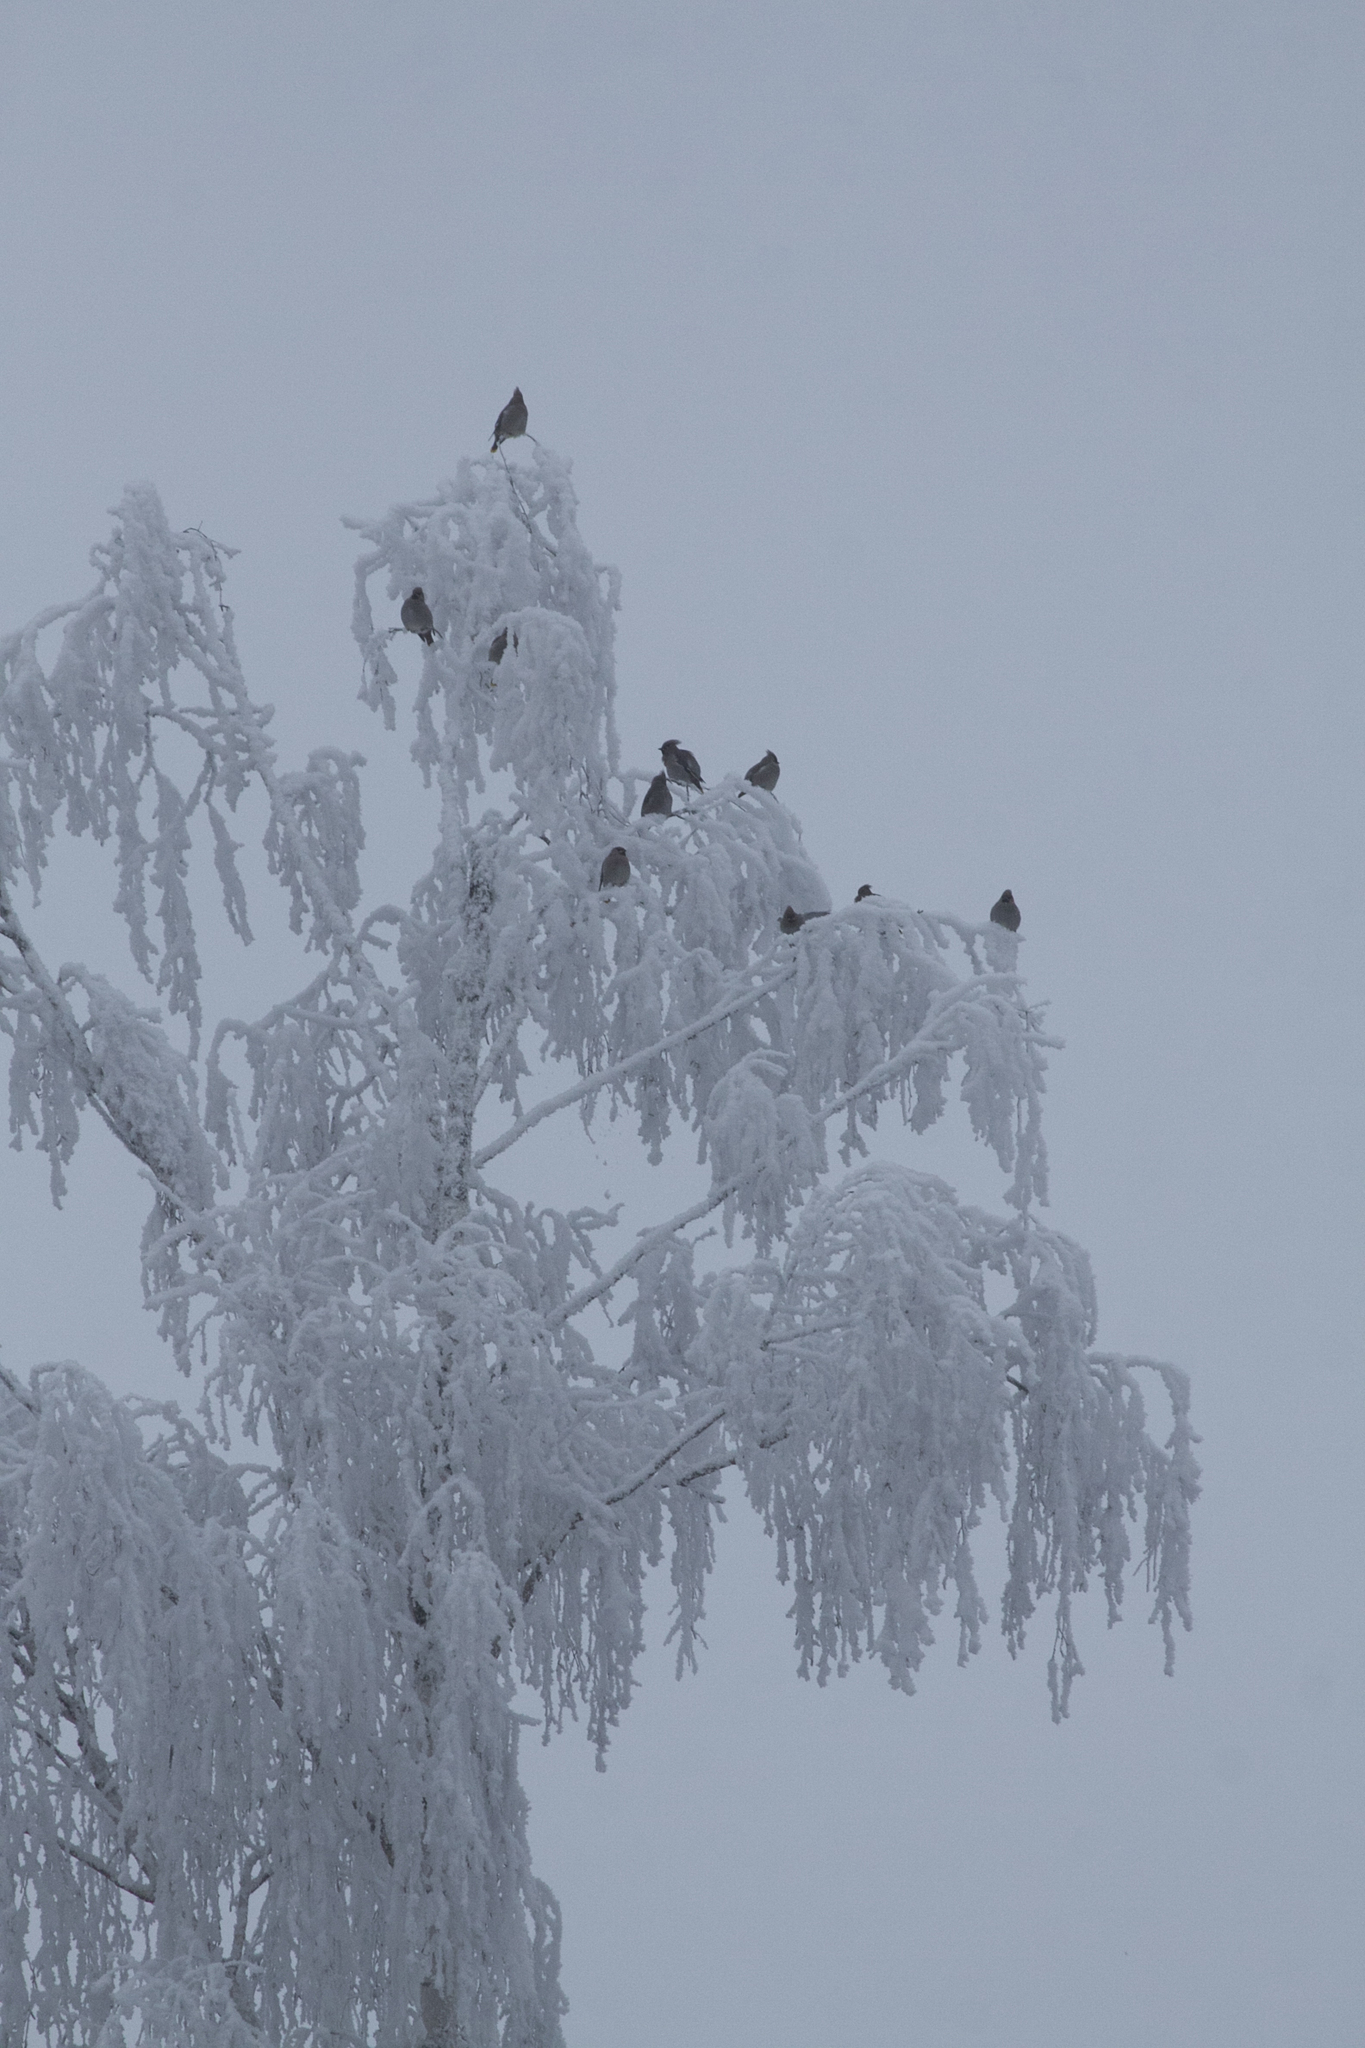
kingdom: Animalia
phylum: Chordata
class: Aves
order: Passeriformes
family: Bombycillidae
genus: Bombycilla
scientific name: Bombycilla garrulus
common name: Bohemian waxwing
